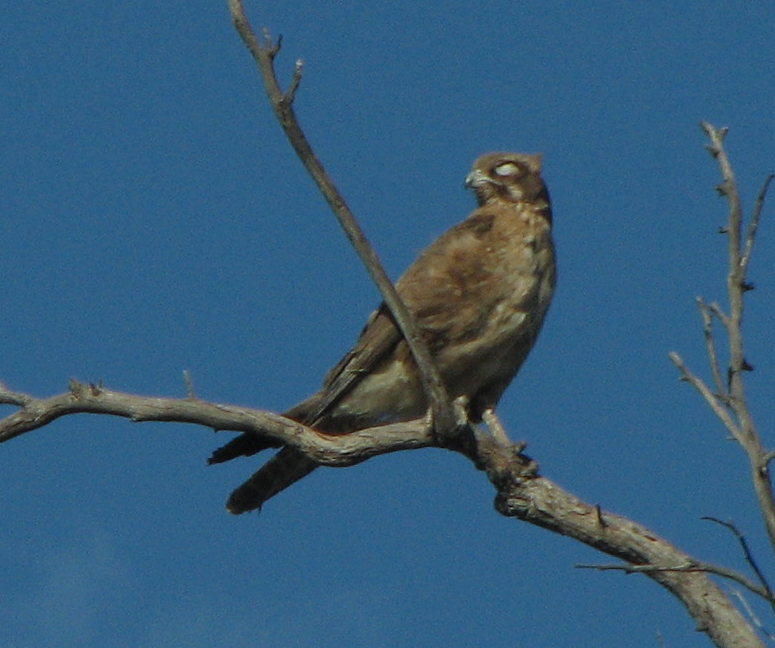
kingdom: Animalia
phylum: Chordata
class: Aves
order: Falconiformes
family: Falconidae
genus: Falco
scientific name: Falco berigora
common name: Brown falcon
